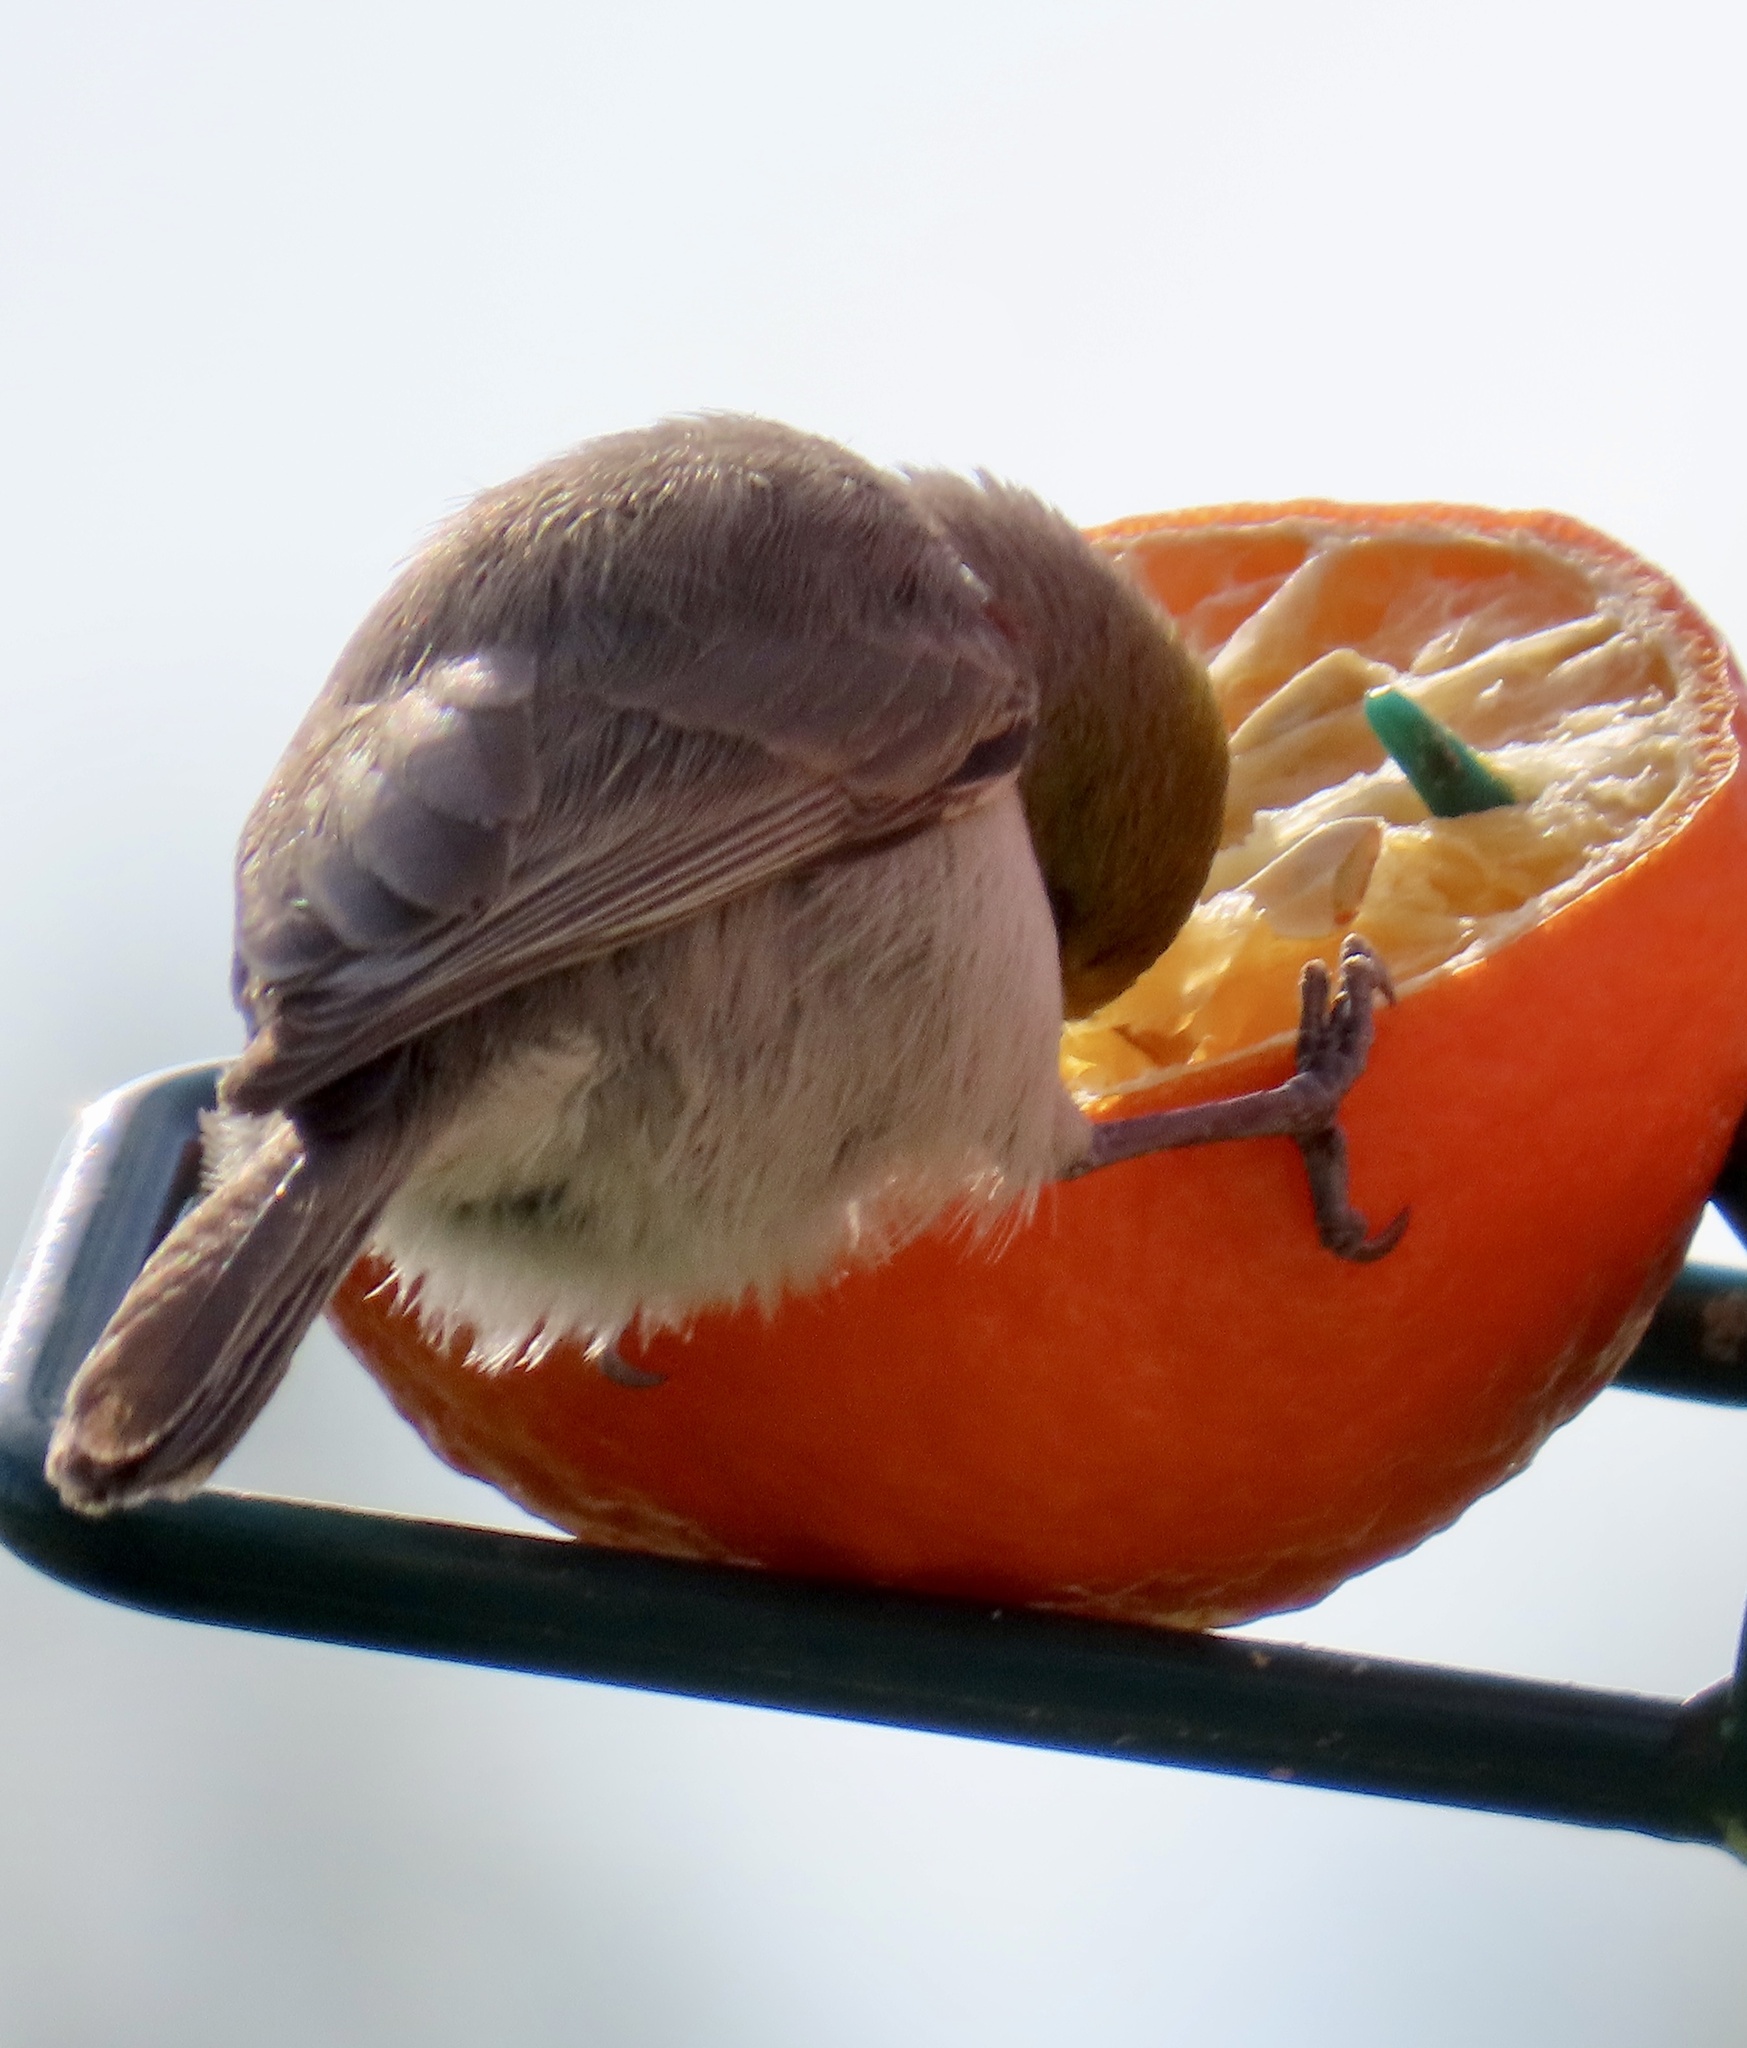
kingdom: Animalia
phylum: Chordata
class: Aves
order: Passeriformes
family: Remizidae
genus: Auriparus
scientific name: Auriparus flaviceps
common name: Verdin
